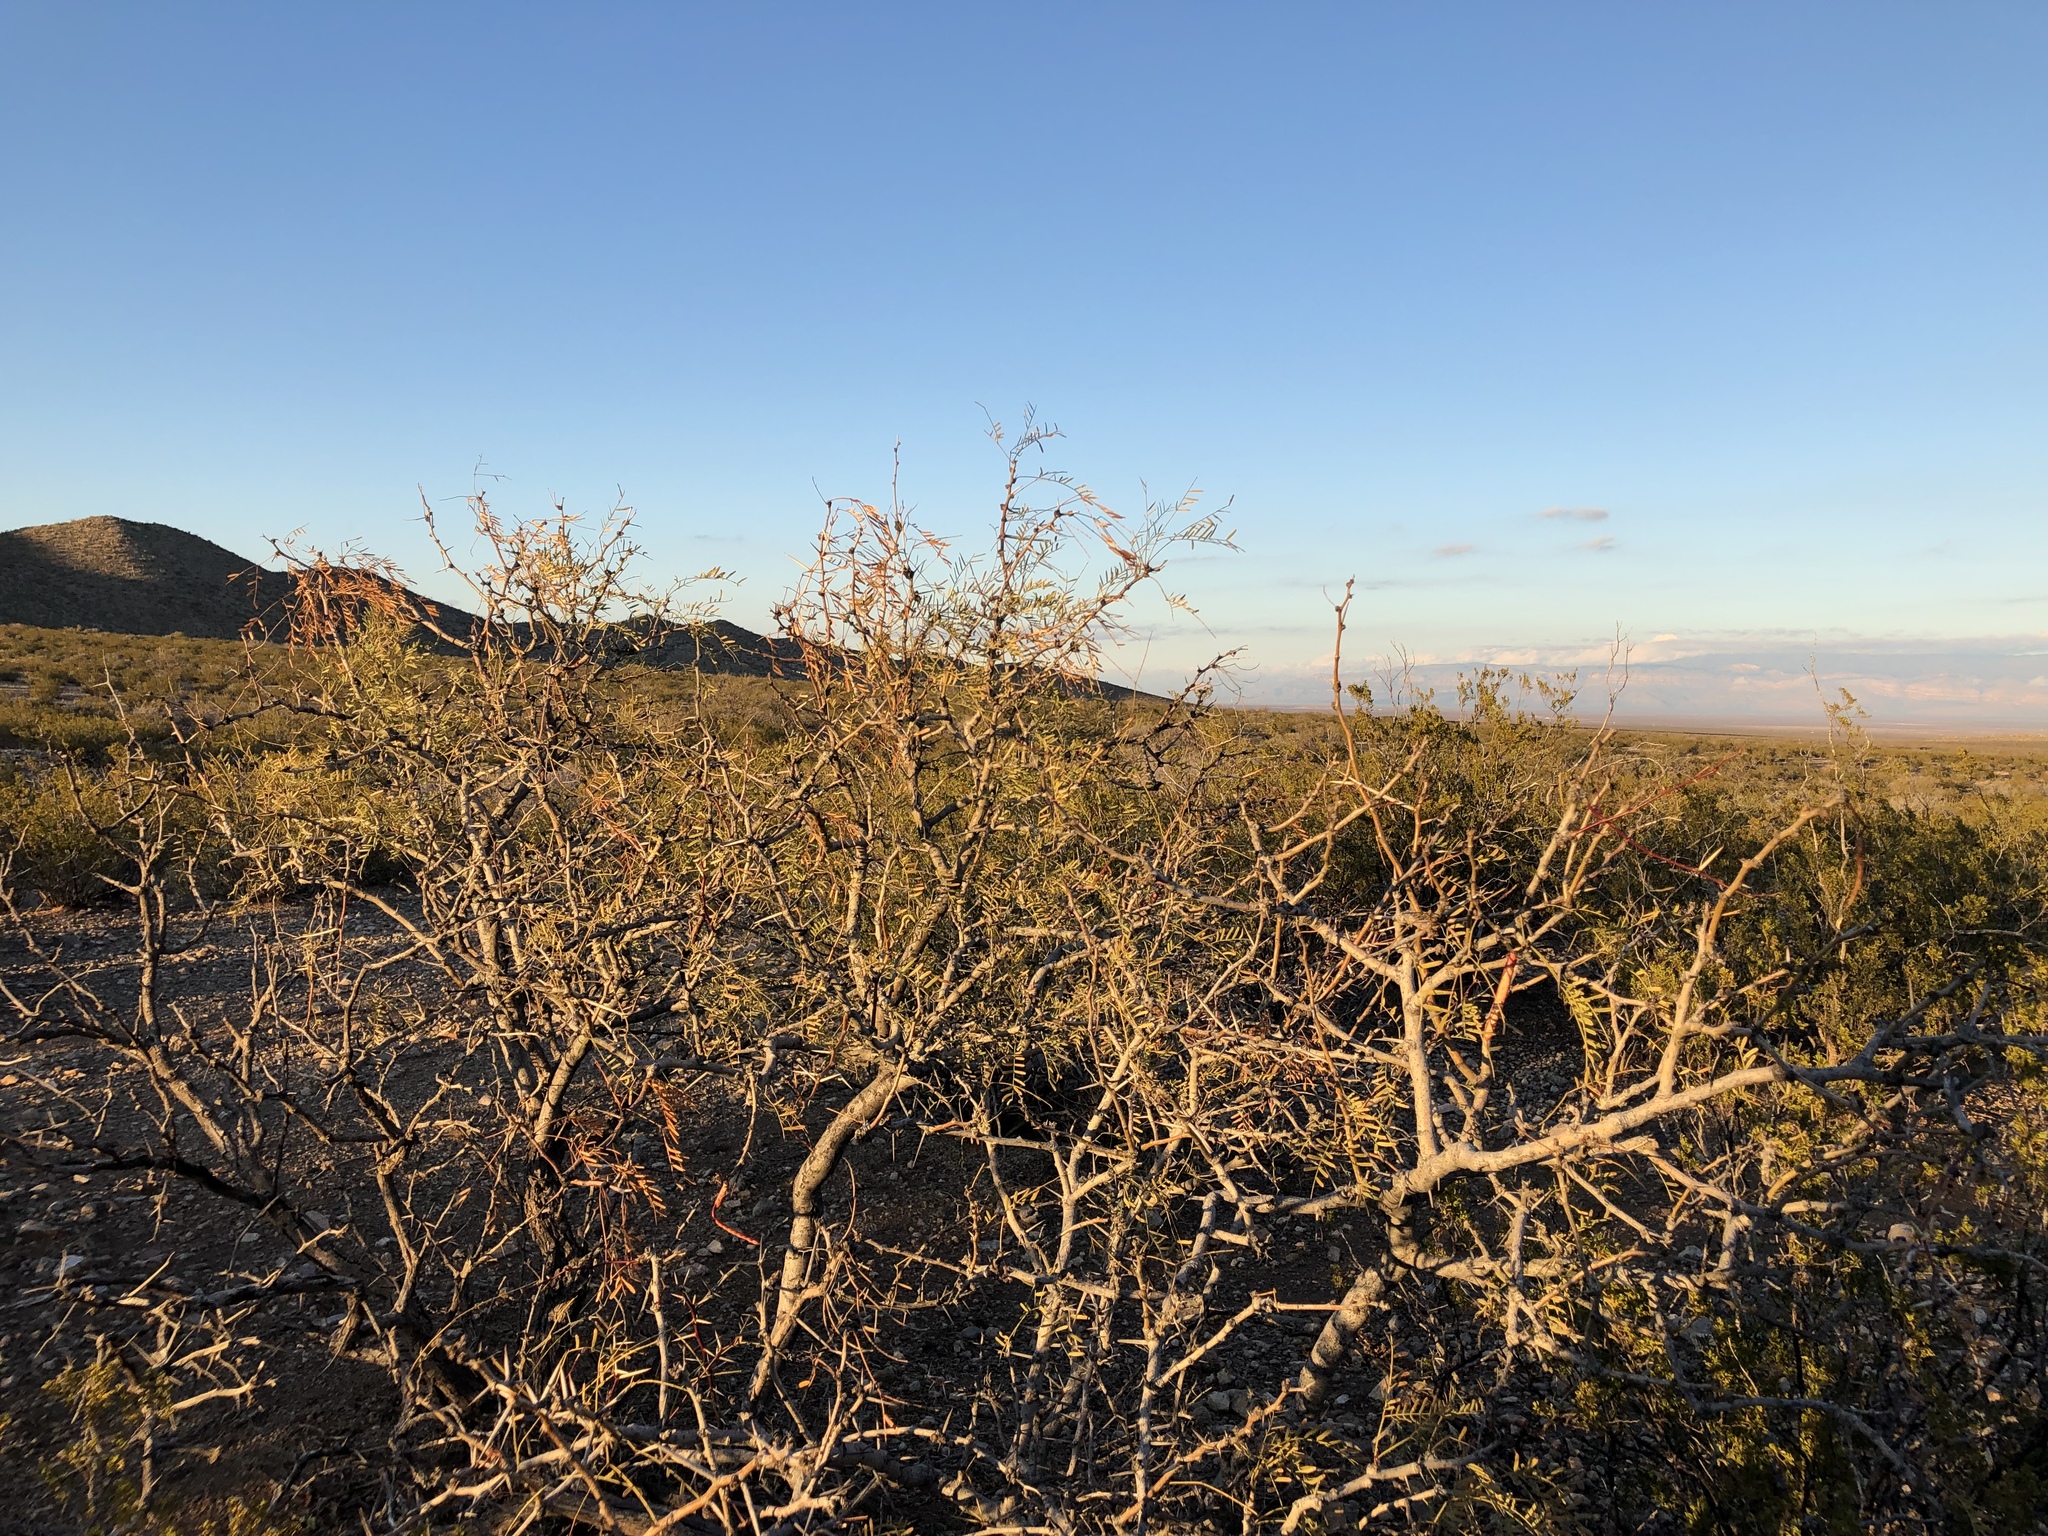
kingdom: Plantae
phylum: Tracheophyta
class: Magnoliopsida
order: Fabales
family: Fabaceae
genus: Prosopis
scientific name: Prosopis glandulosa
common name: Honey mesquite
